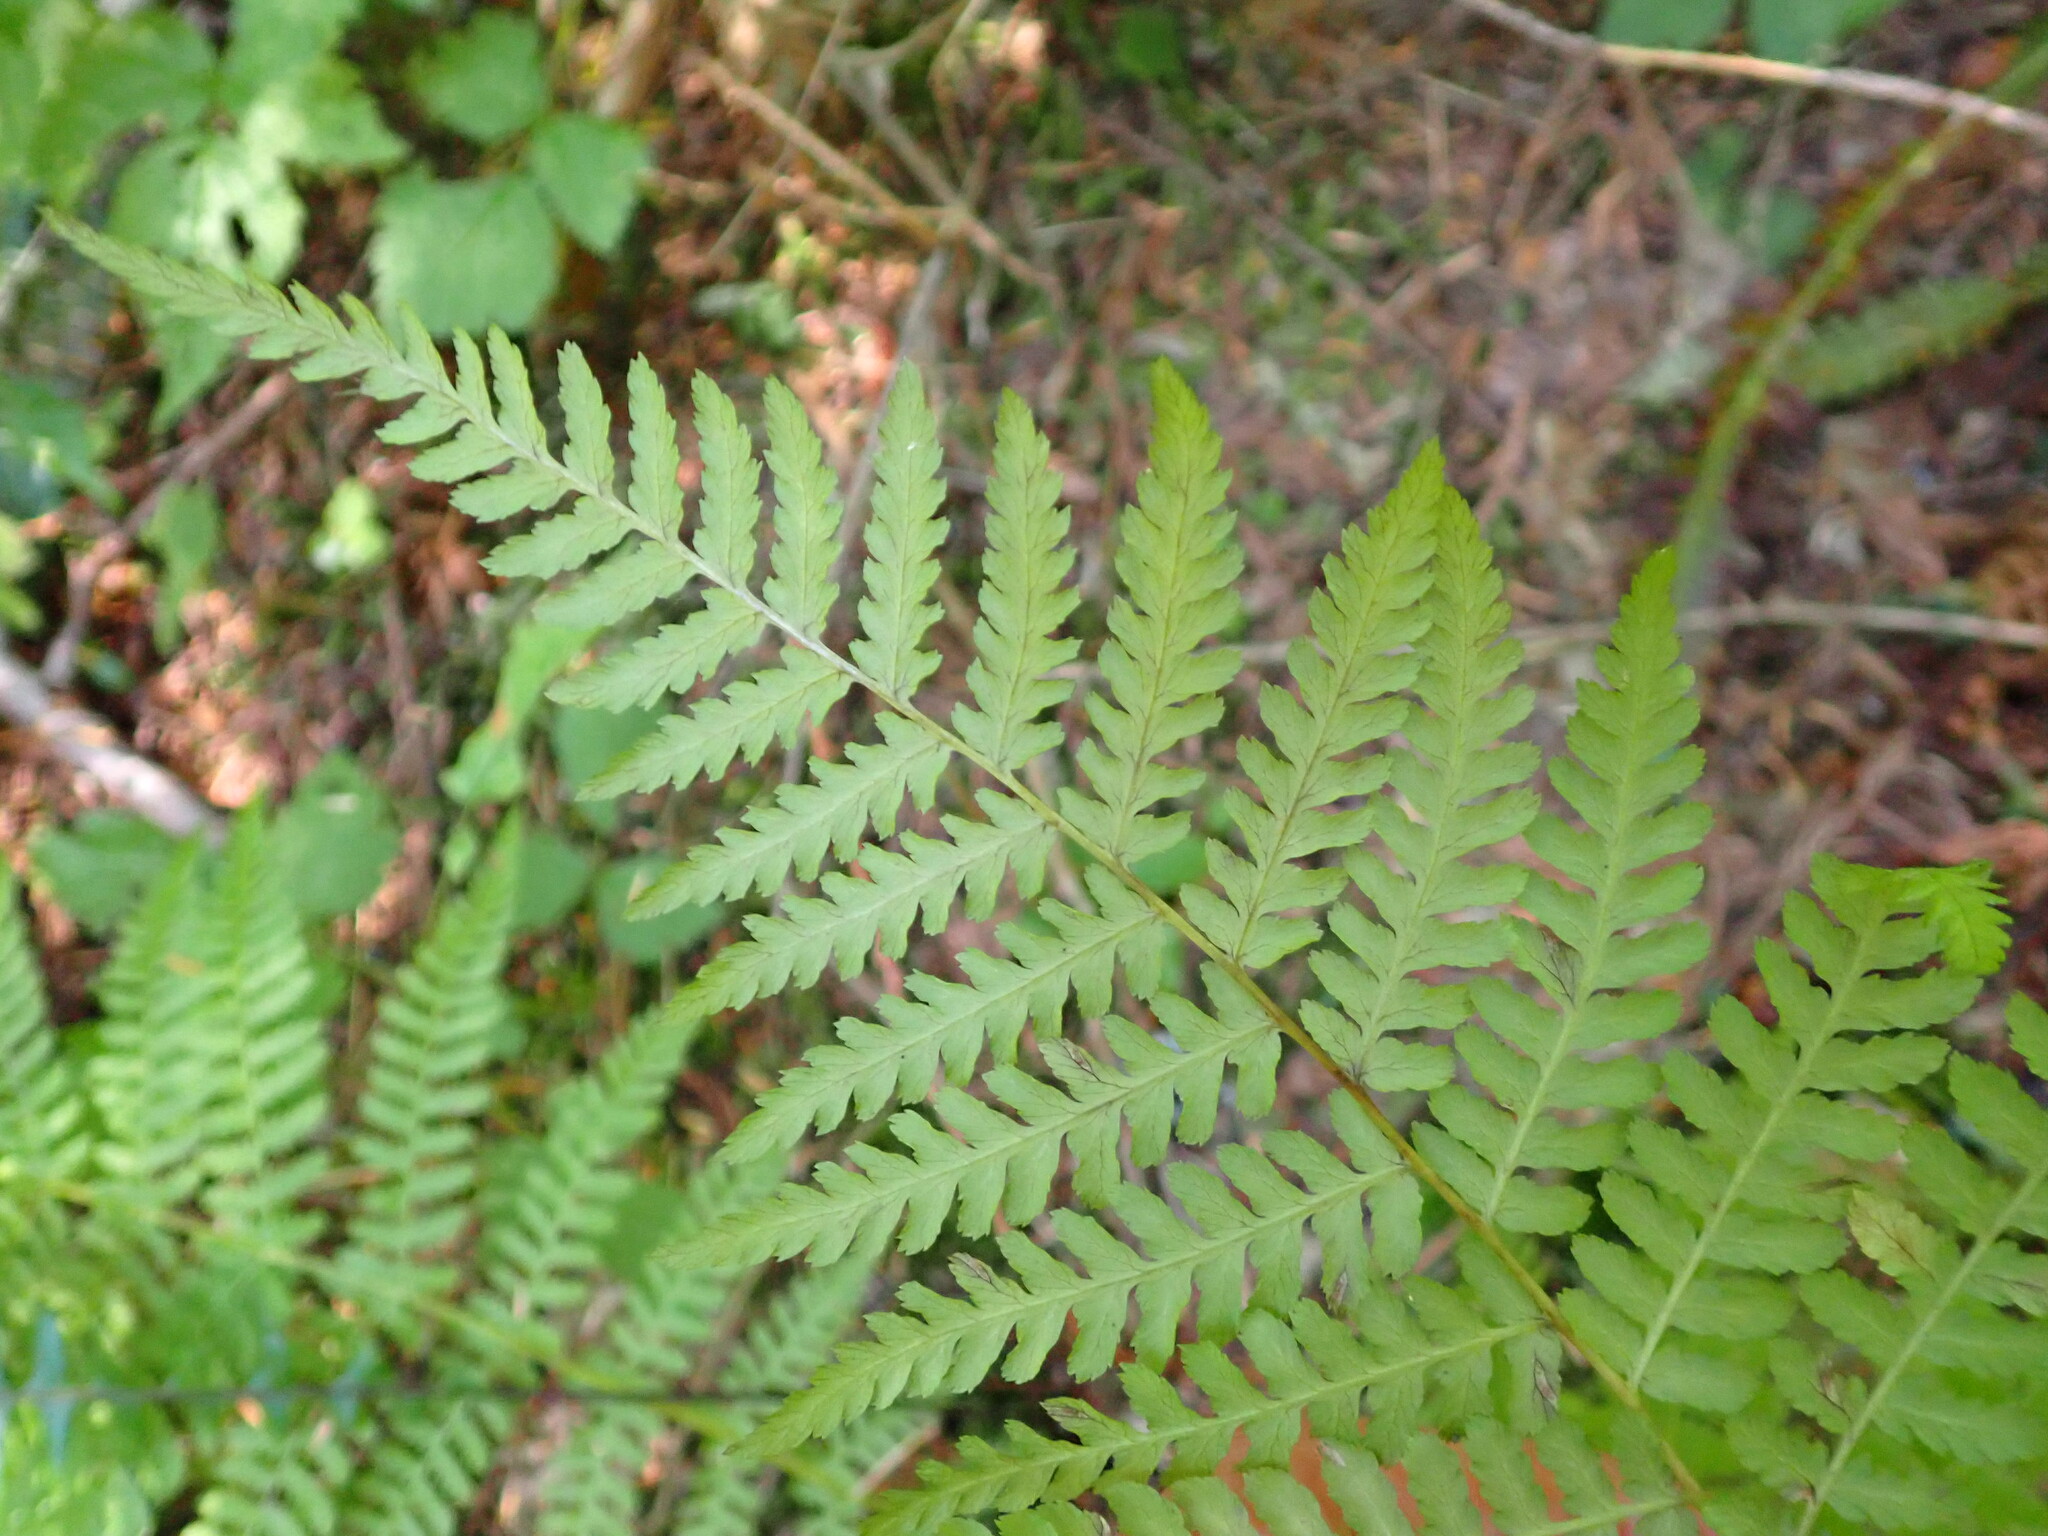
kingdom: Plantae
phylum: Tracheophyta
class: Polypodiopsida
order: Polypodiales
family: Athyriaceae
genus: Athyrium
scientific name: Athyrium filix-femina
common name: Lady fern
